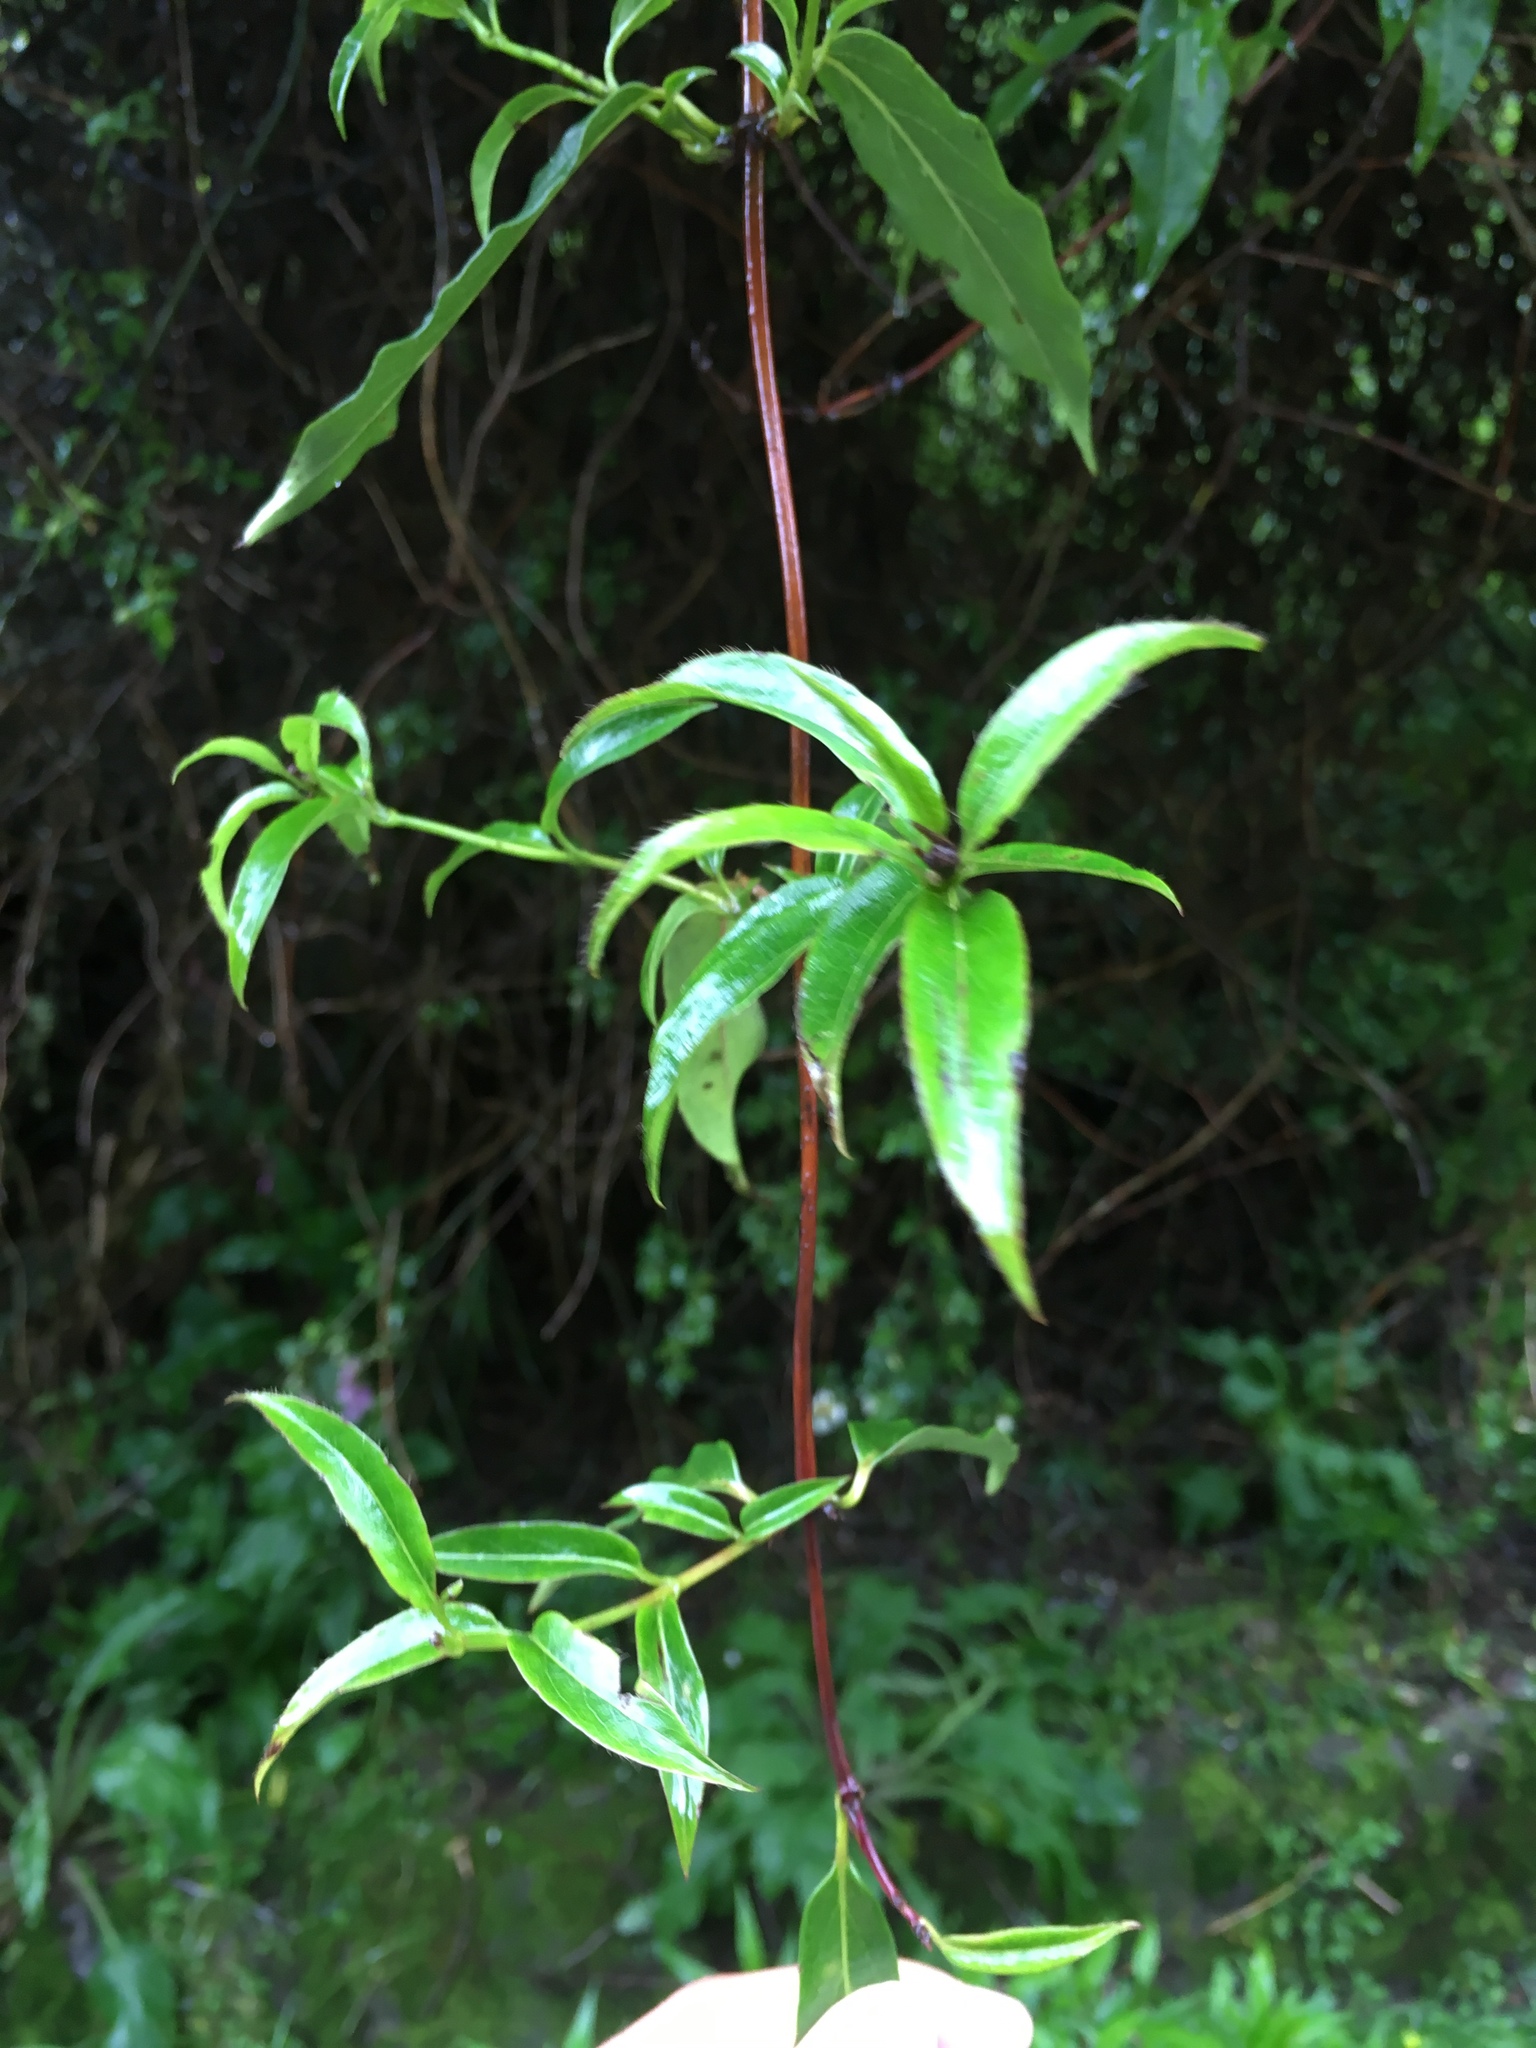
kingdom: Plantae
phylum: Tracheophyta
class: Magnoliopsida
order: Dipsacales
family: Caprifoliaceae
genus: Lonicera
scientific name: Lonicera acuminata
